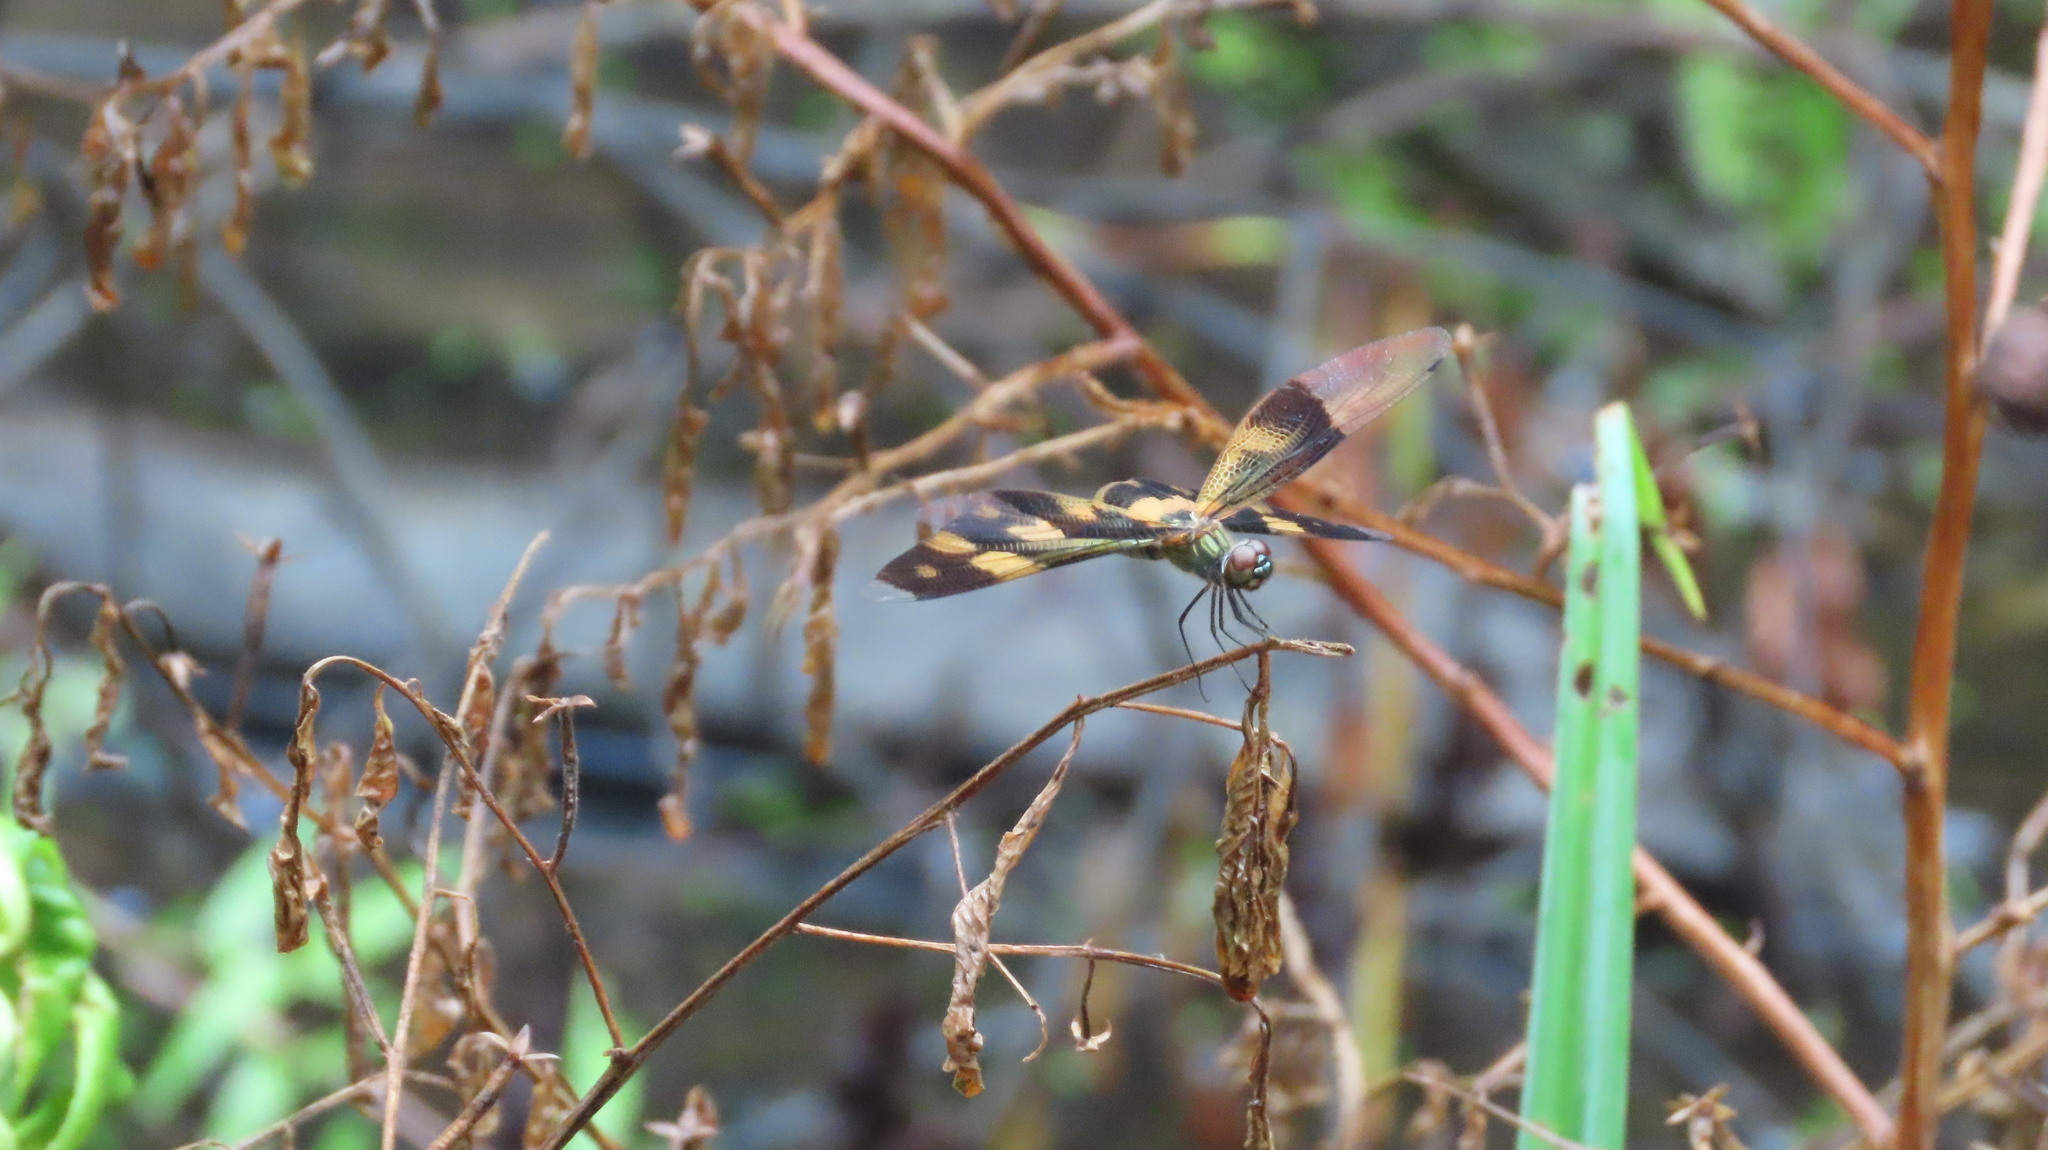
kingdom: Animalia
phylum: Arthropoda
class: Insecta
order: Odonata
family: Libellulidae
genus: Rhyothemis
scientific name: Rhyothemis variegata
